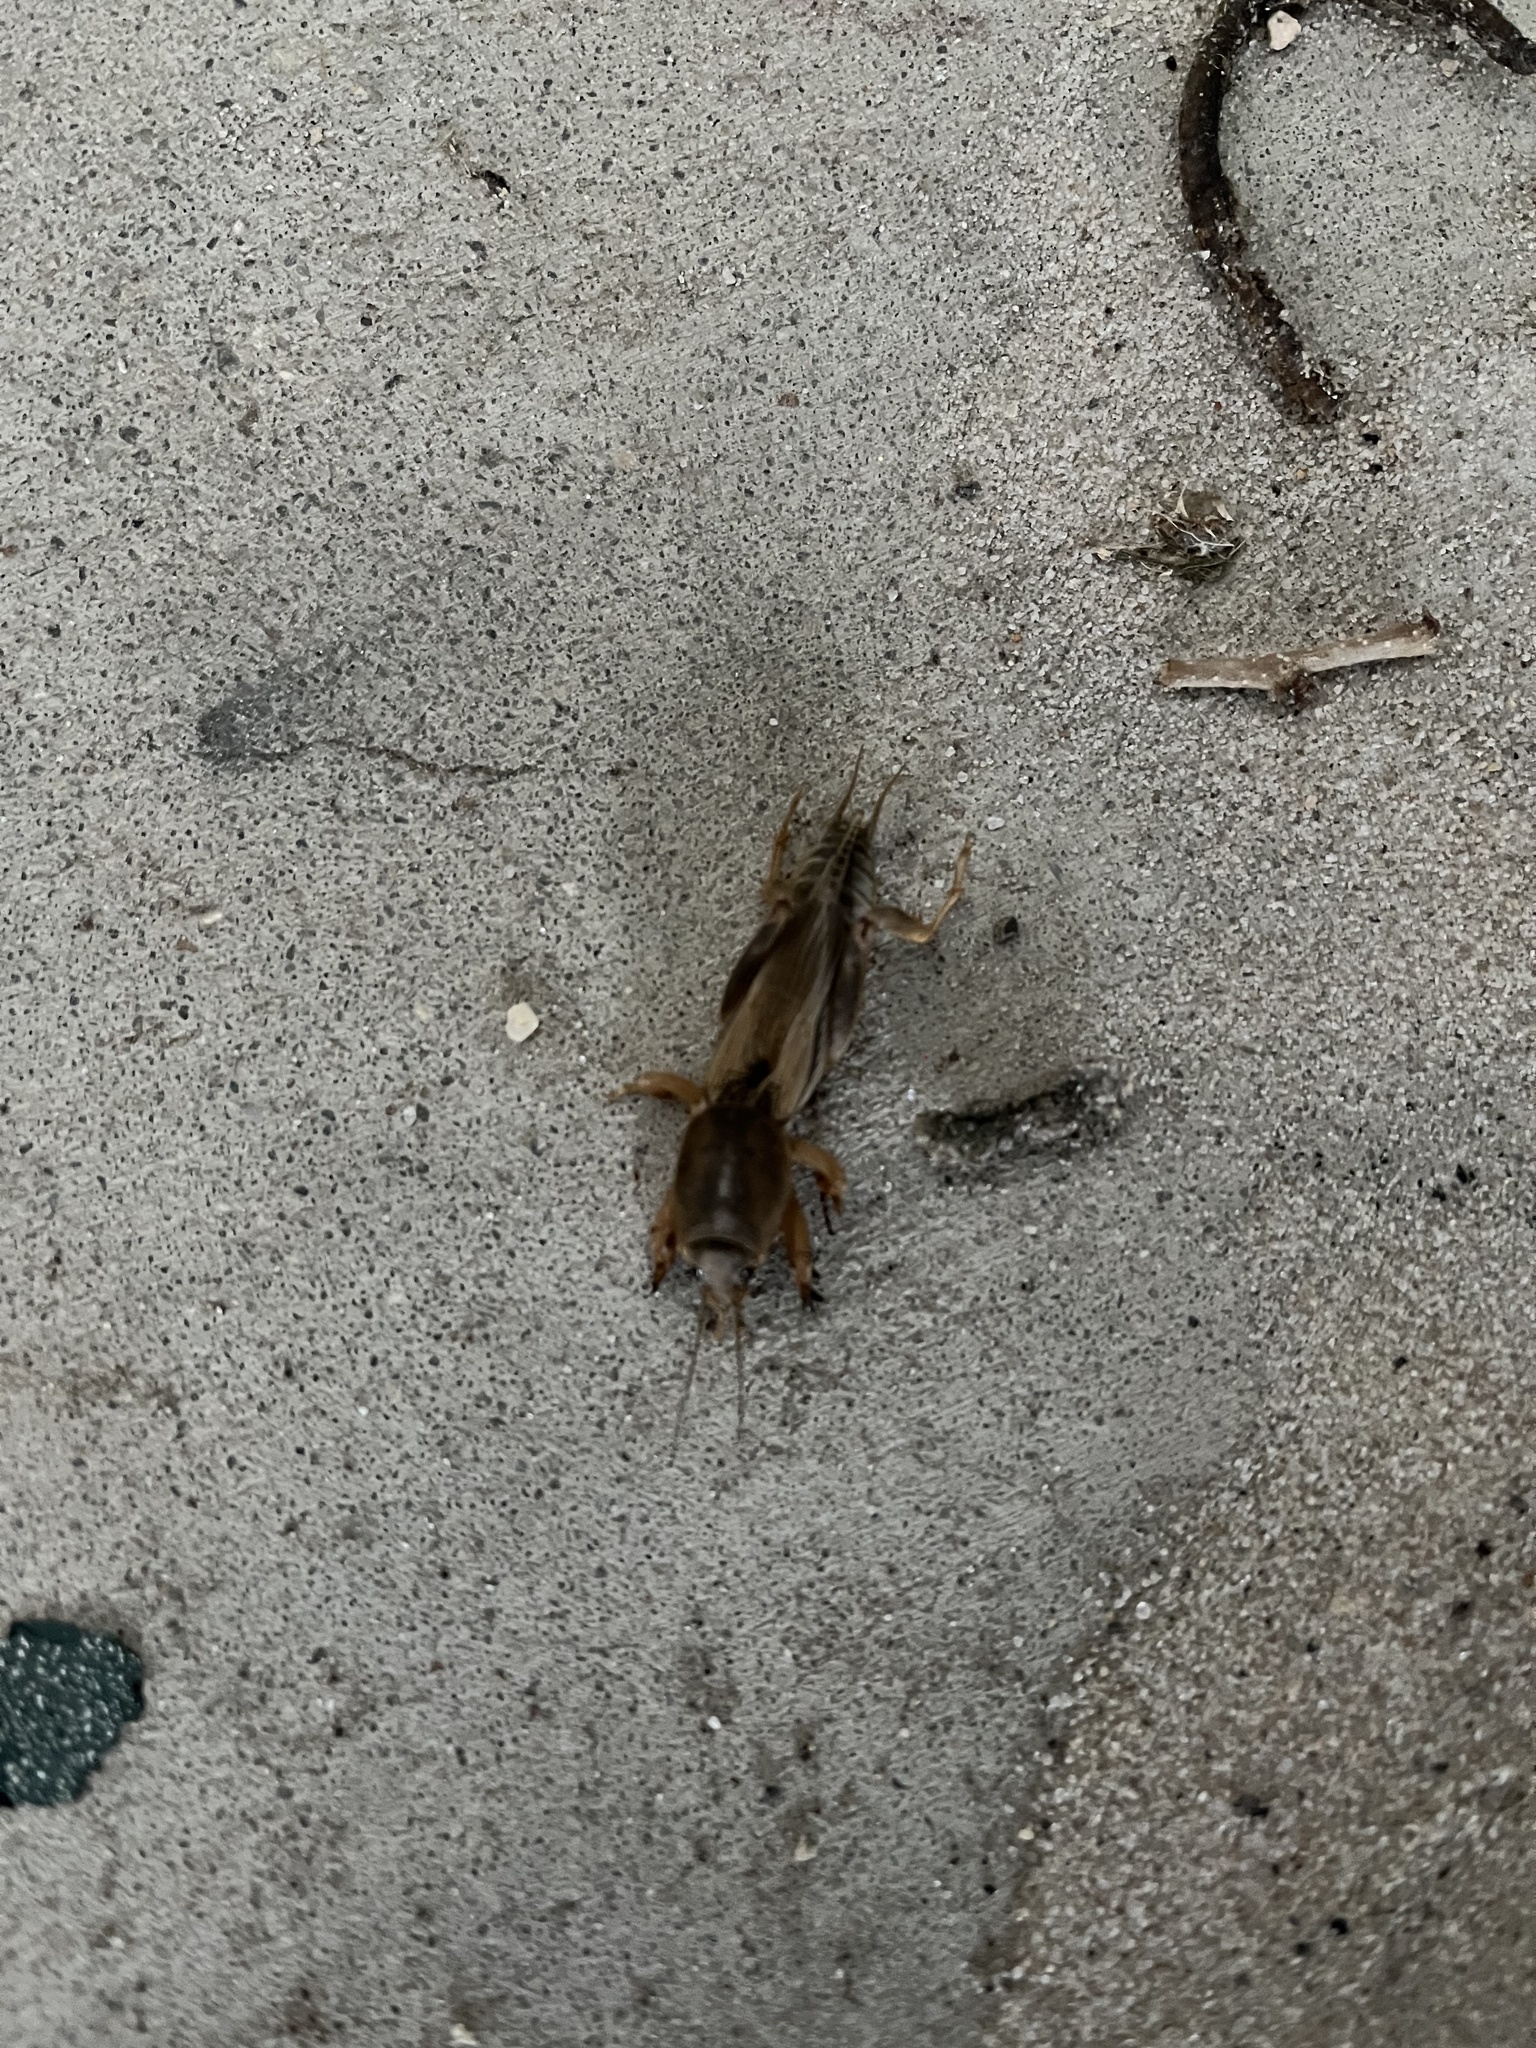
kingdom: Animalia
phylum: Arthropoda
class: Insecta
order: Orthoptera
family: Gryllotalpidae
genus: Neoscapteriscus
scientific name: Neoscapteriscus vicinus
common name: Tawny mole cricket
